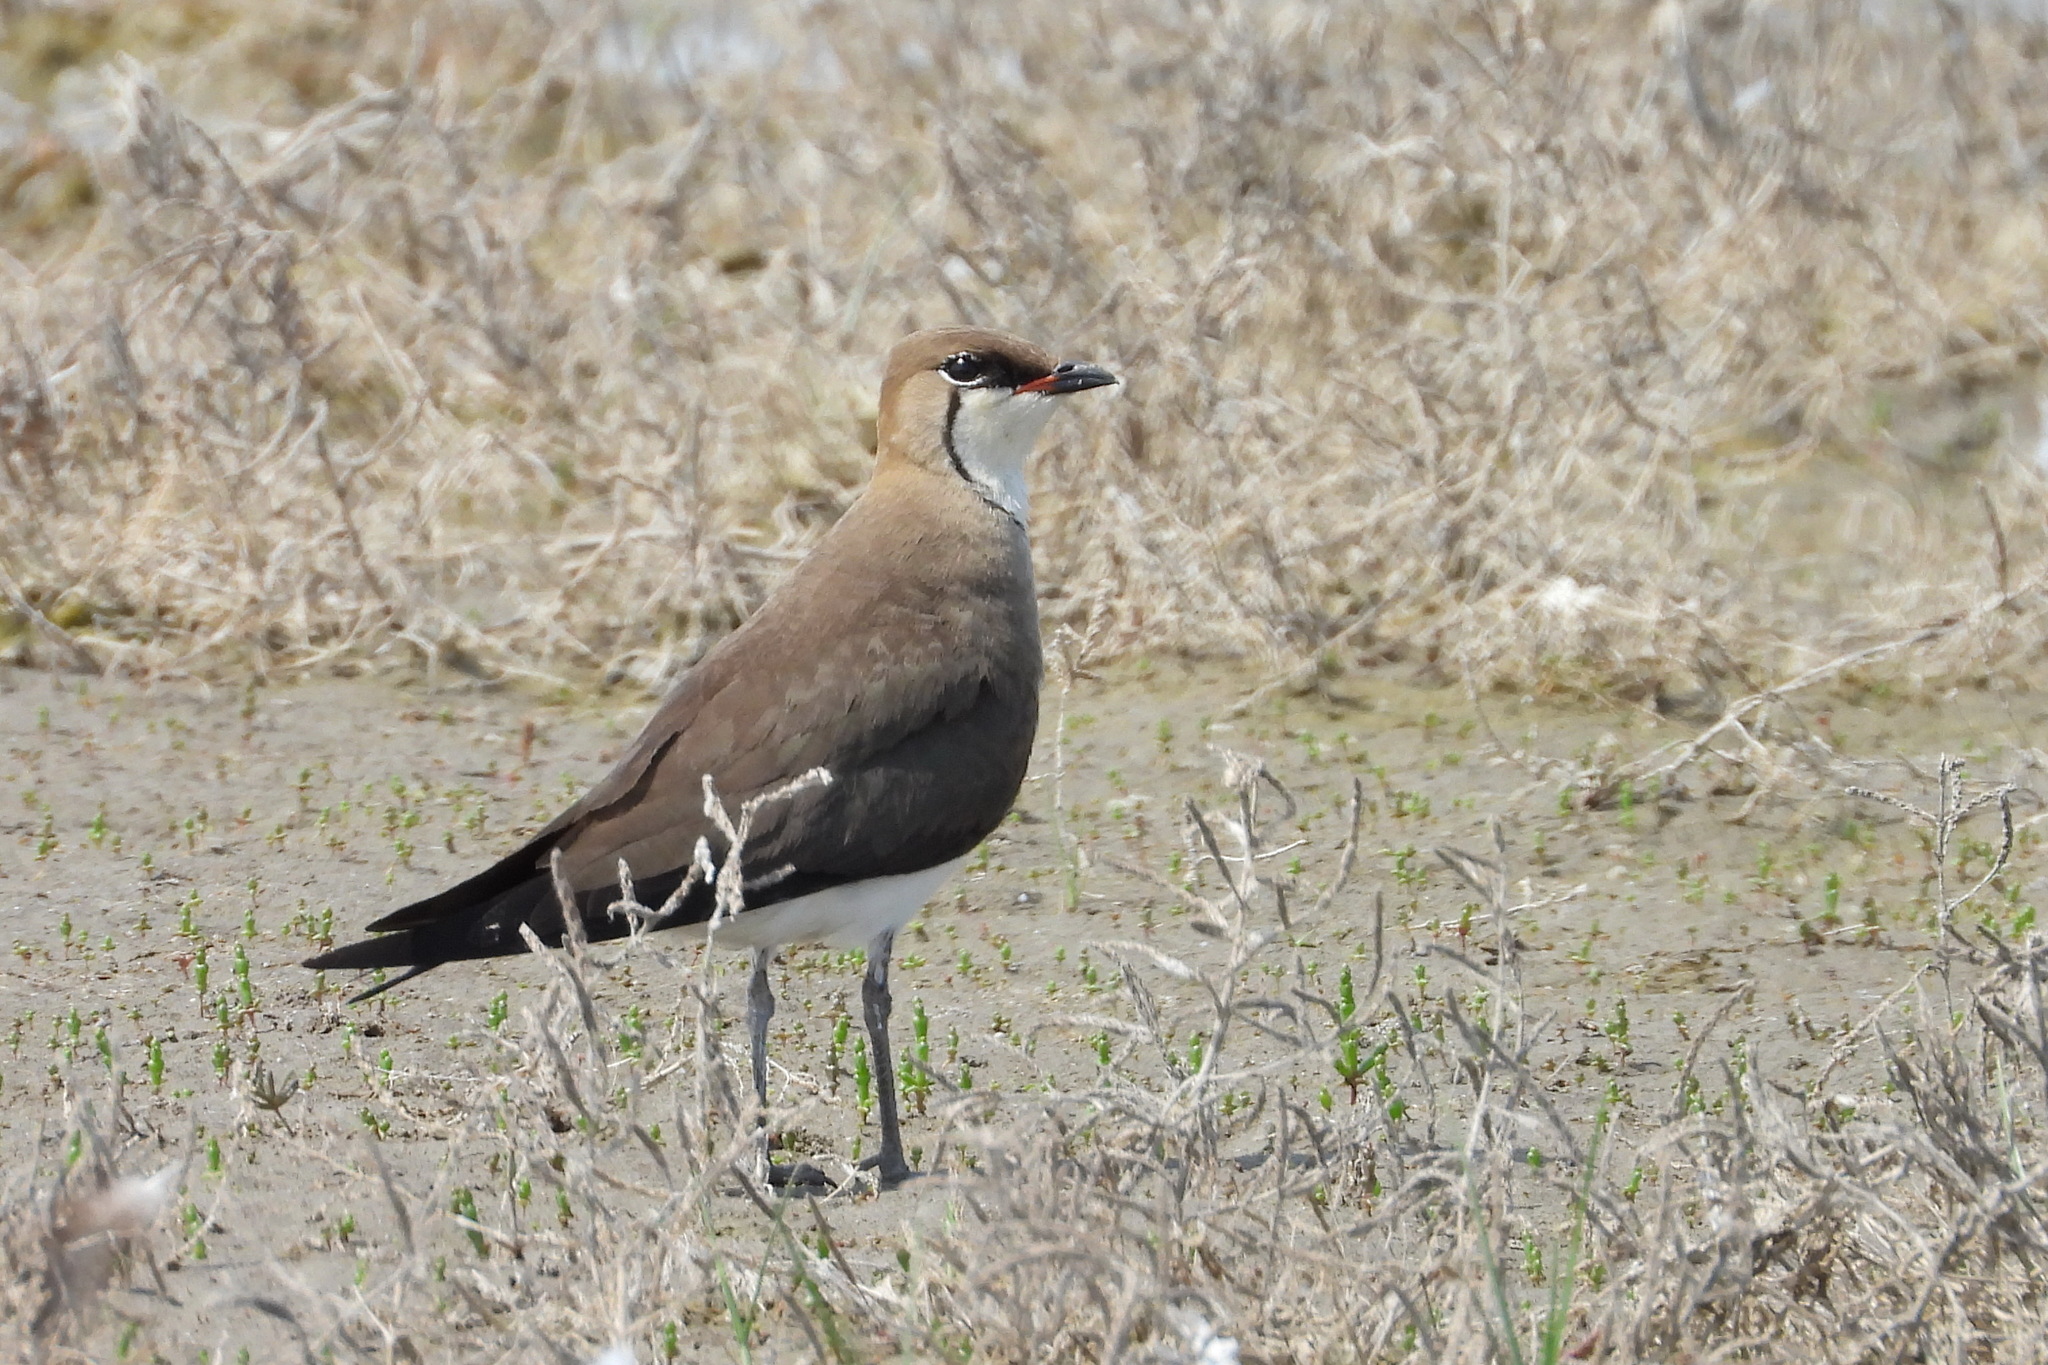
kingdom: Animalia
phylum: Chordata
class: Aves
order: Charadriiformes
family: Glareolidae
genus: Glareola
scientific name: Glareola nordmanni
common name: Black-winged pratincole
